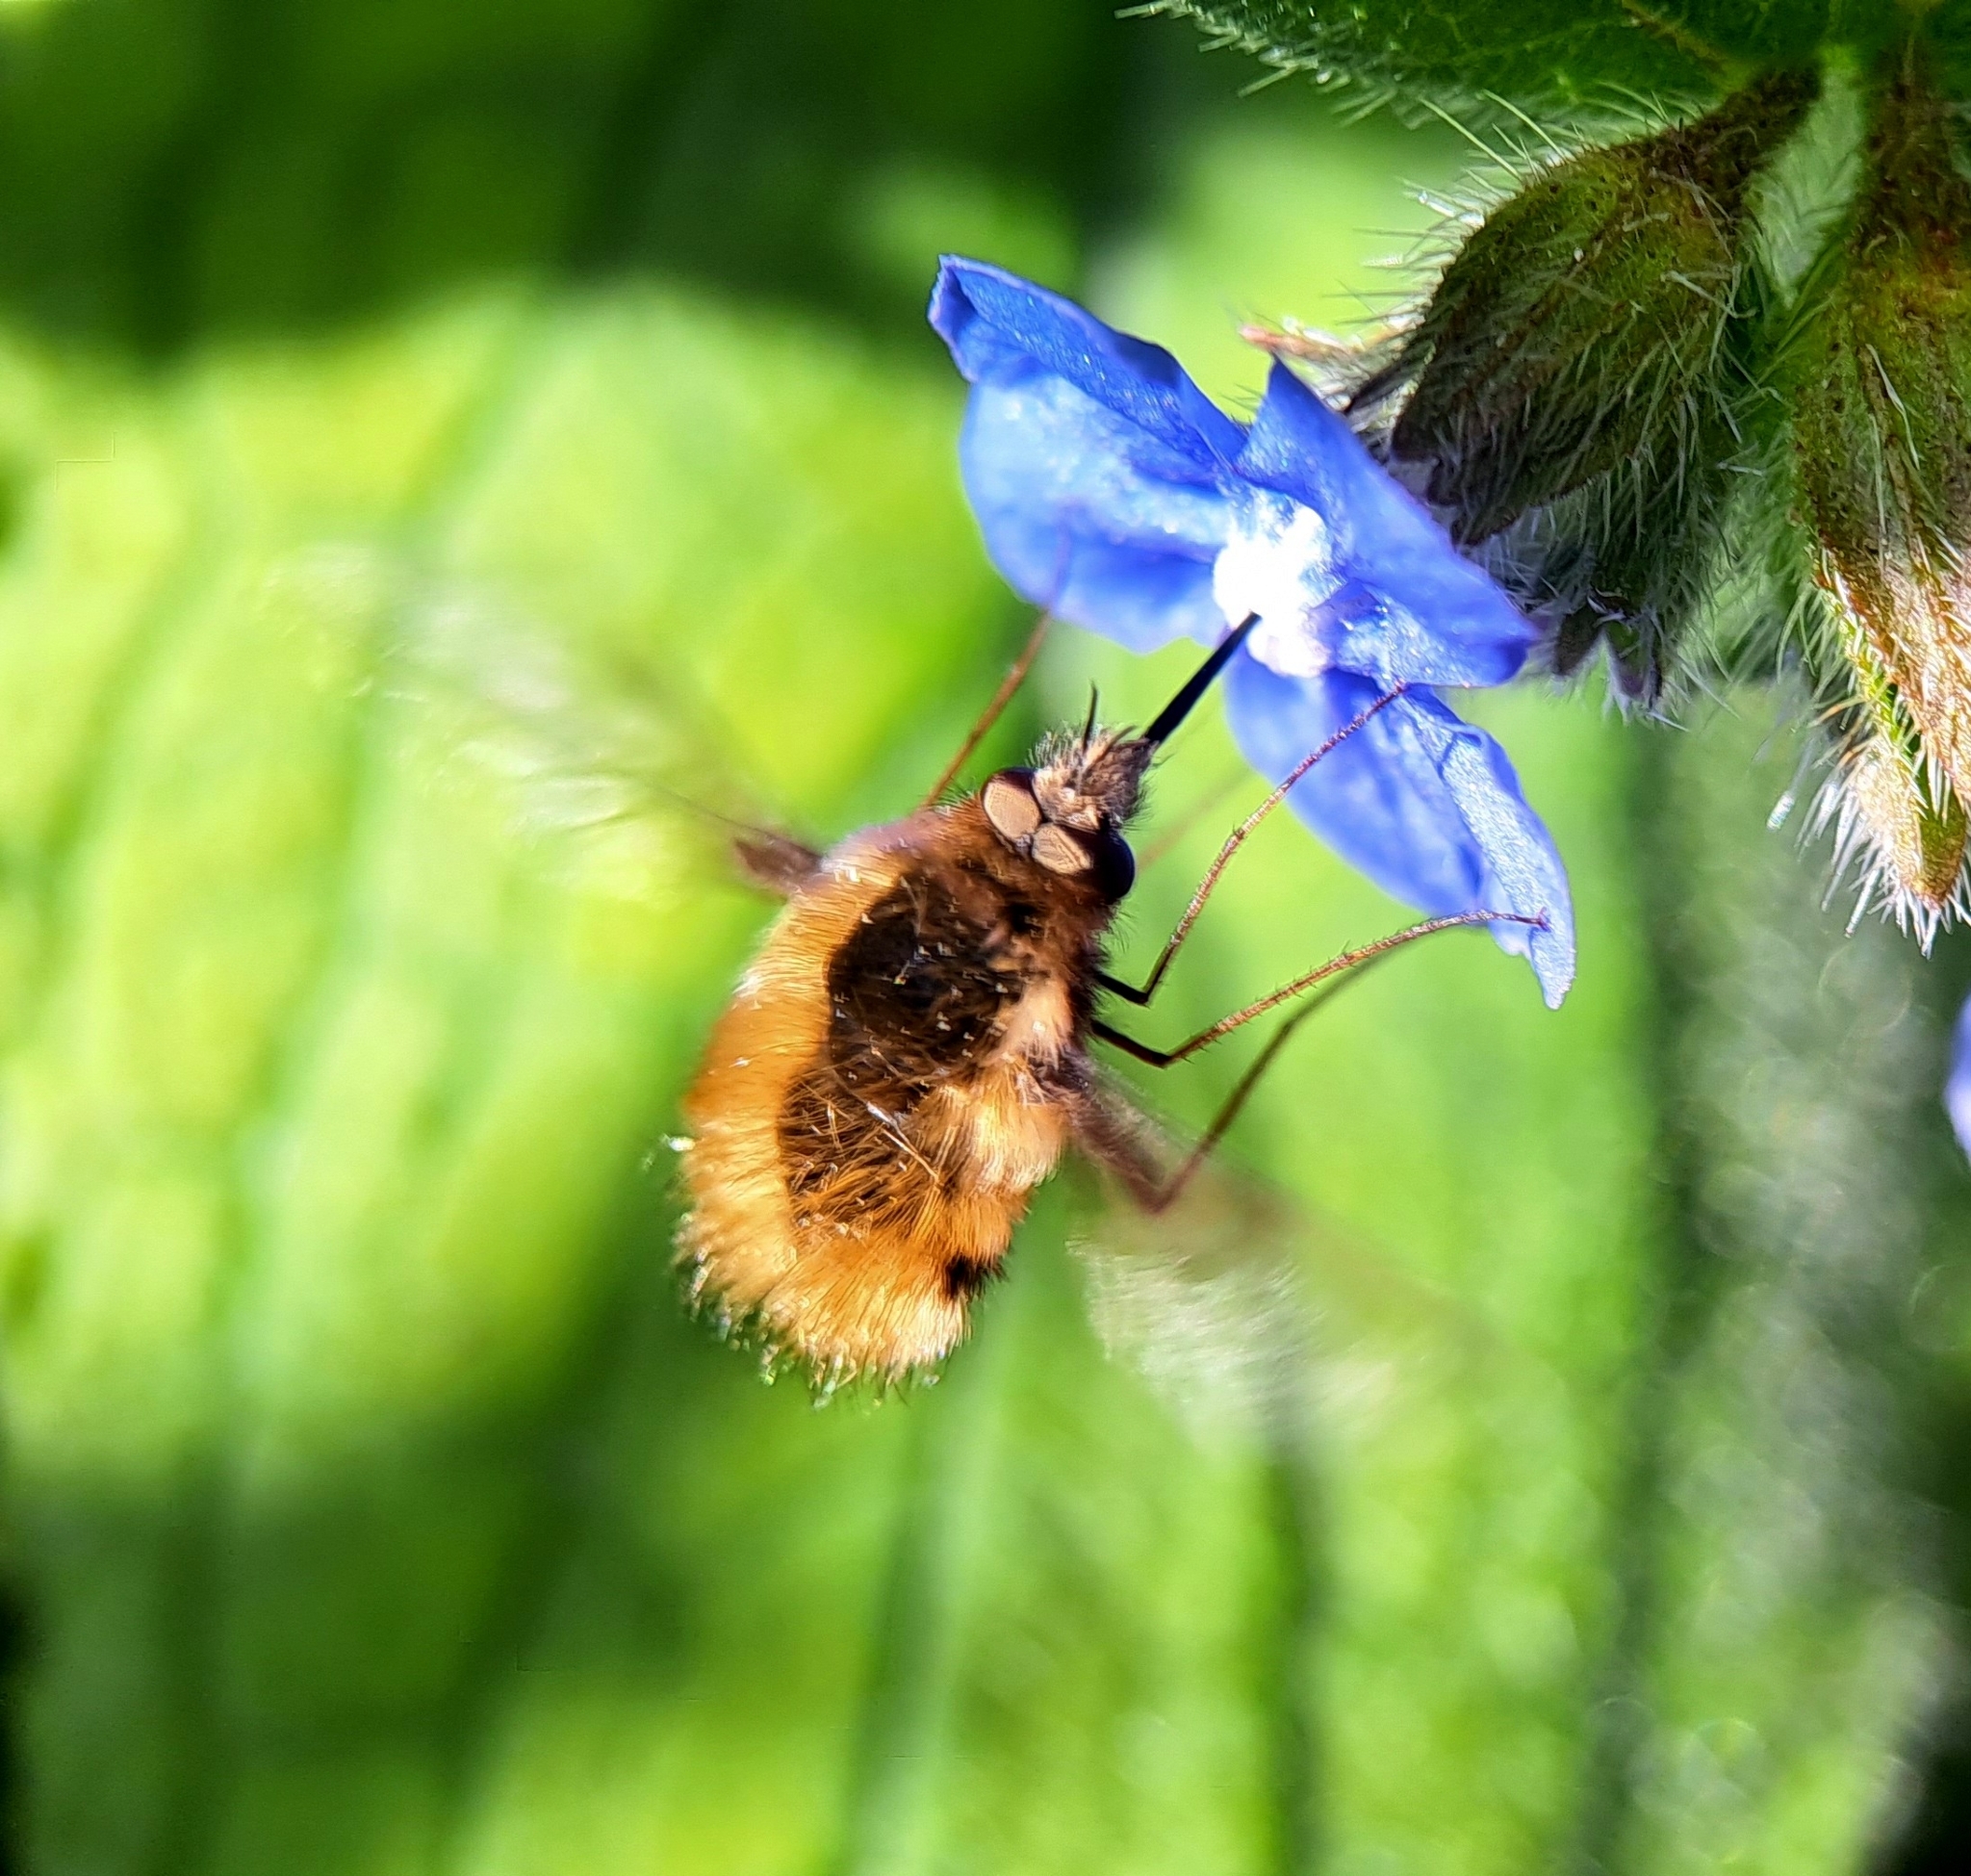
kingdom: Animalia
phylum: Arthropoda
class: Insecta
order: Diptera
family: Bombyliidae
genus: Bombylius
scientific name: Bombylius major
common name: Bee fly
